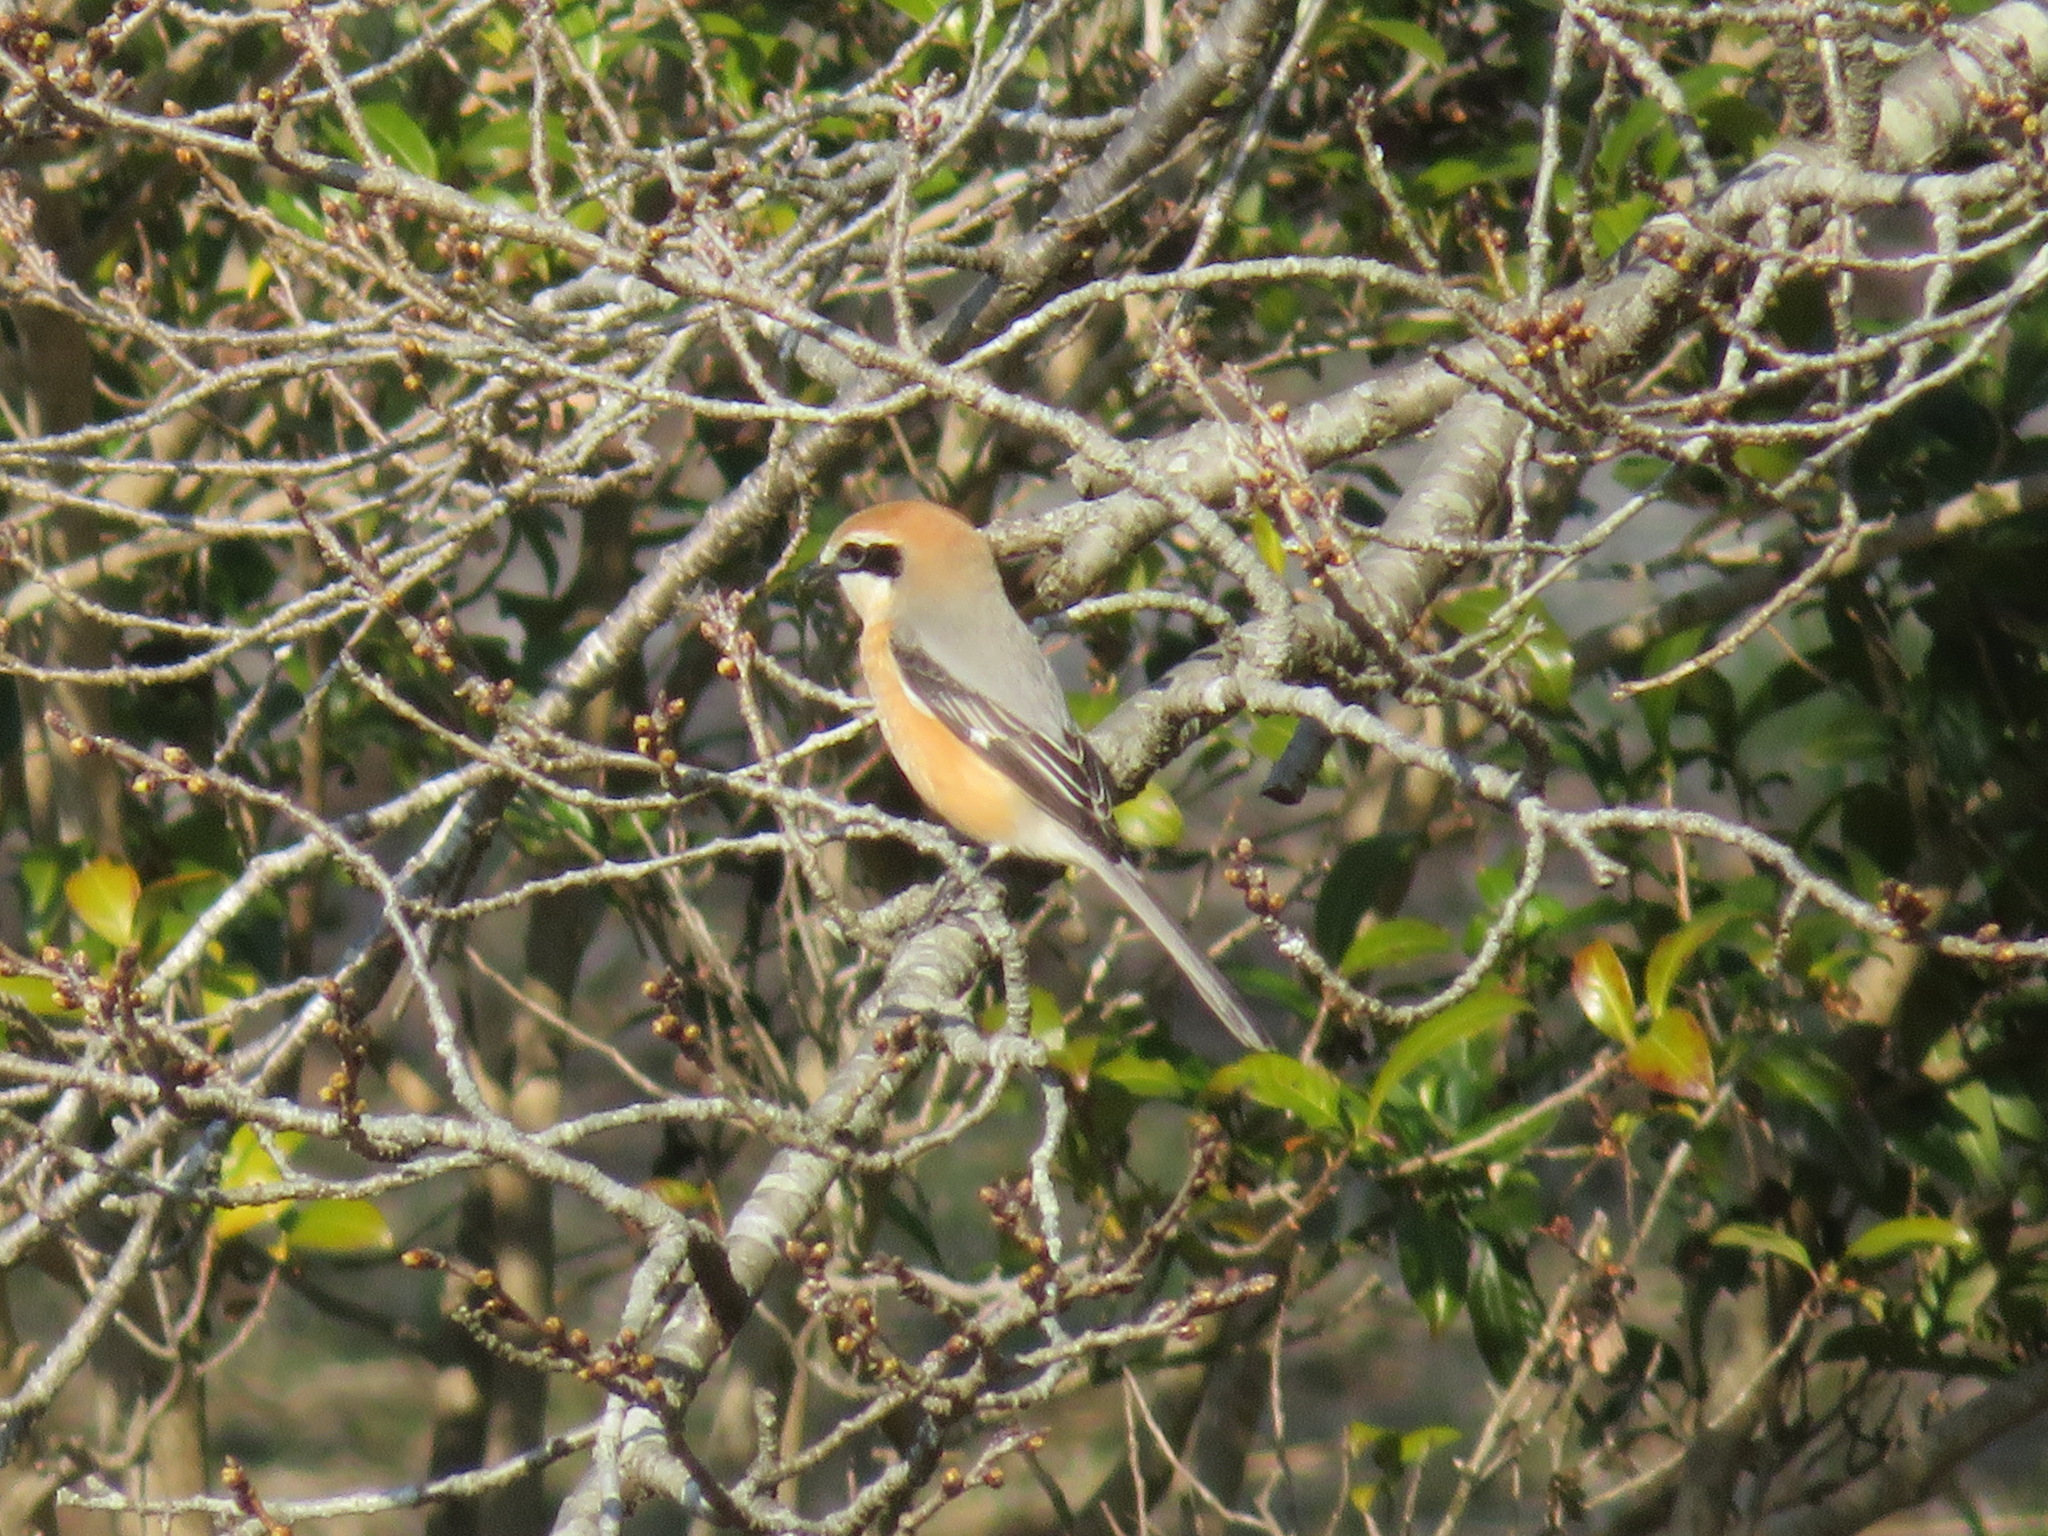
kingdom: Animalia
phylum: Chordata
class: Aves
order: Passeriformes
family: Laniidae
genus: Lanius
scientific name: Lanius bucephalus
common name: Bull-headed shrike
